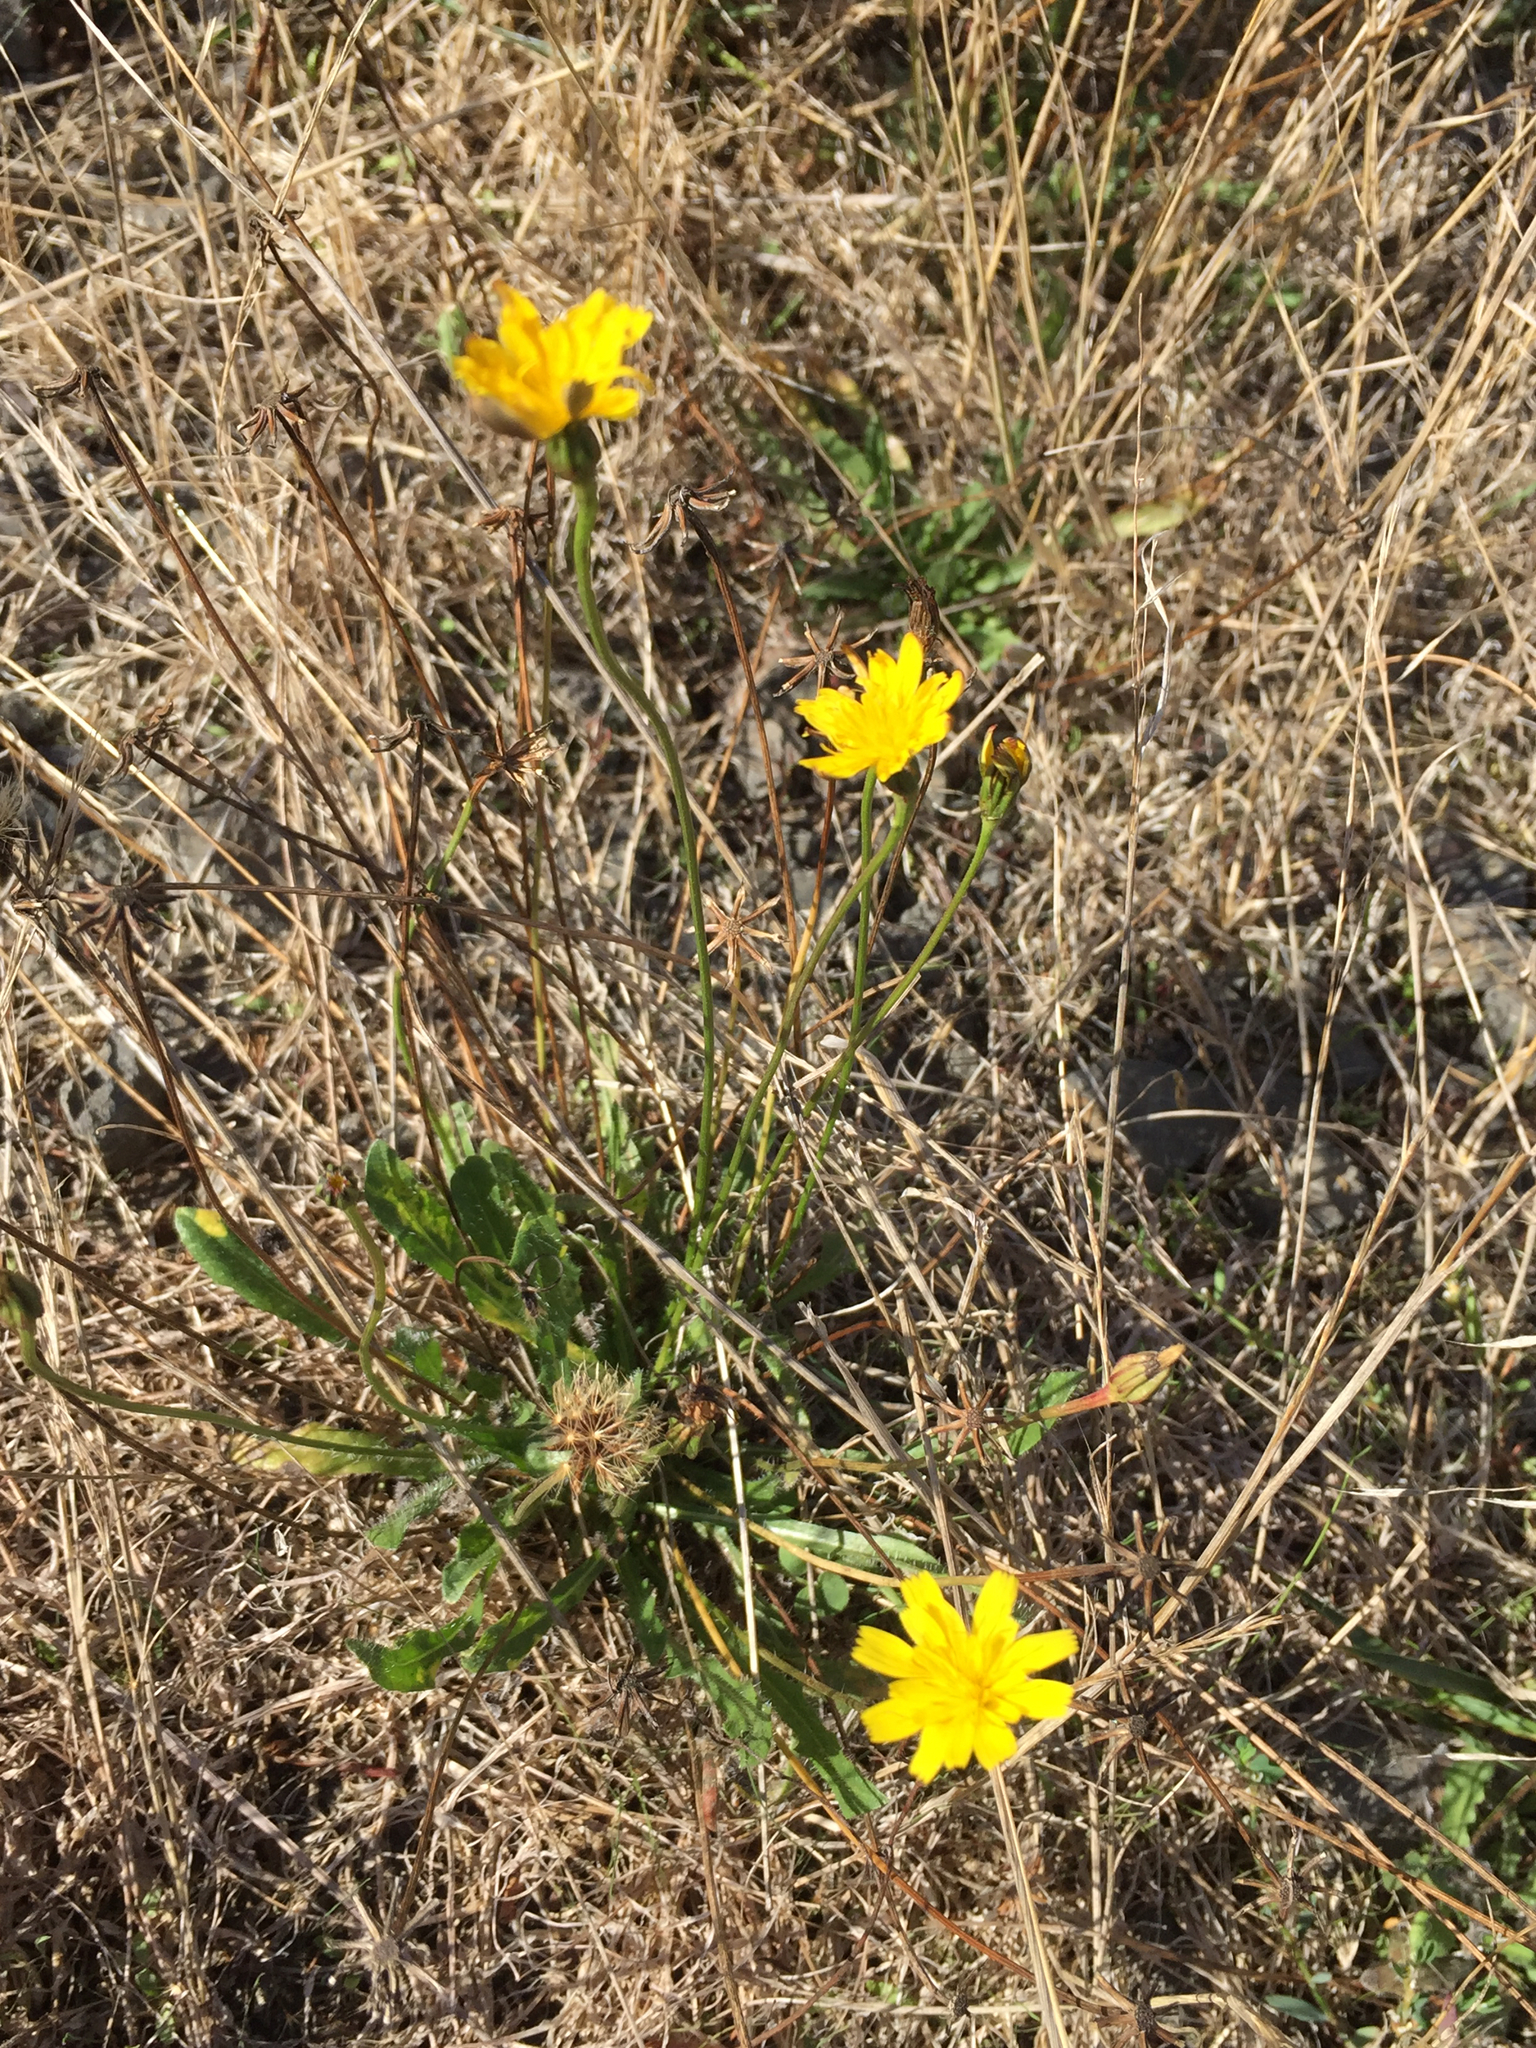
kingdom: Plantae
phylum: Tracheophyta
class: Magnoliopsida
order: Asterales
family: Asteraceae
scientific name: Asteraceae
